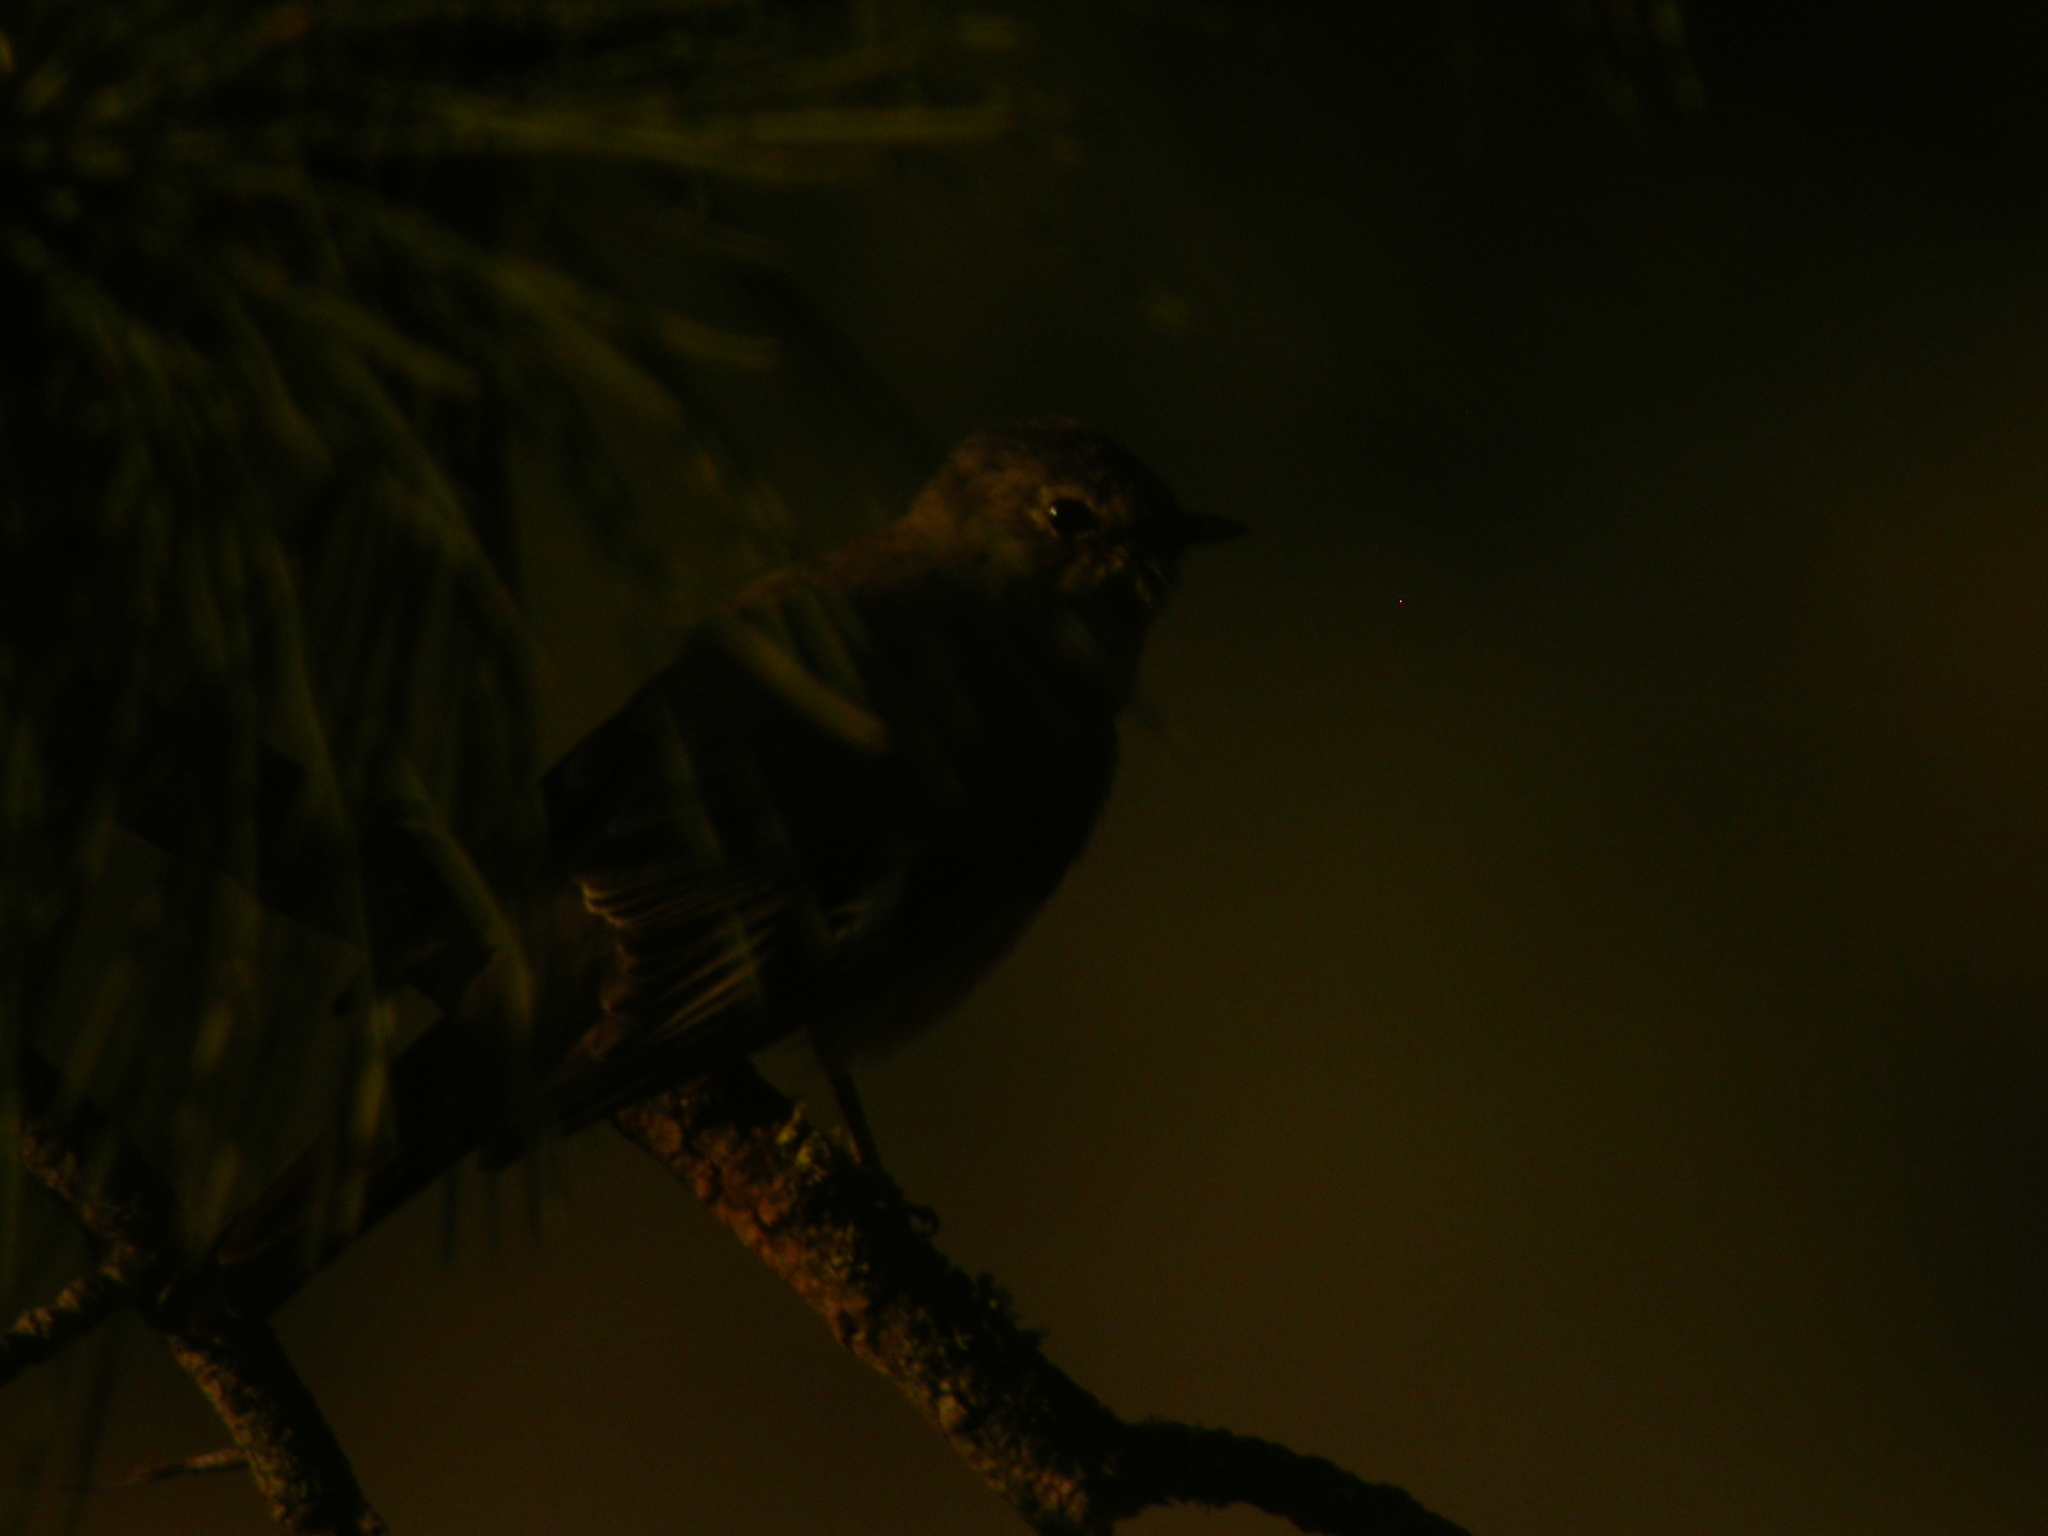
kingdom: Animalia
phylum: Chordata
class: Aves
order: Passeriformes
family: Turdidae
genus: Myadestes
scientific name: Myadestes townsendi
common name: Townsend's solitaire
